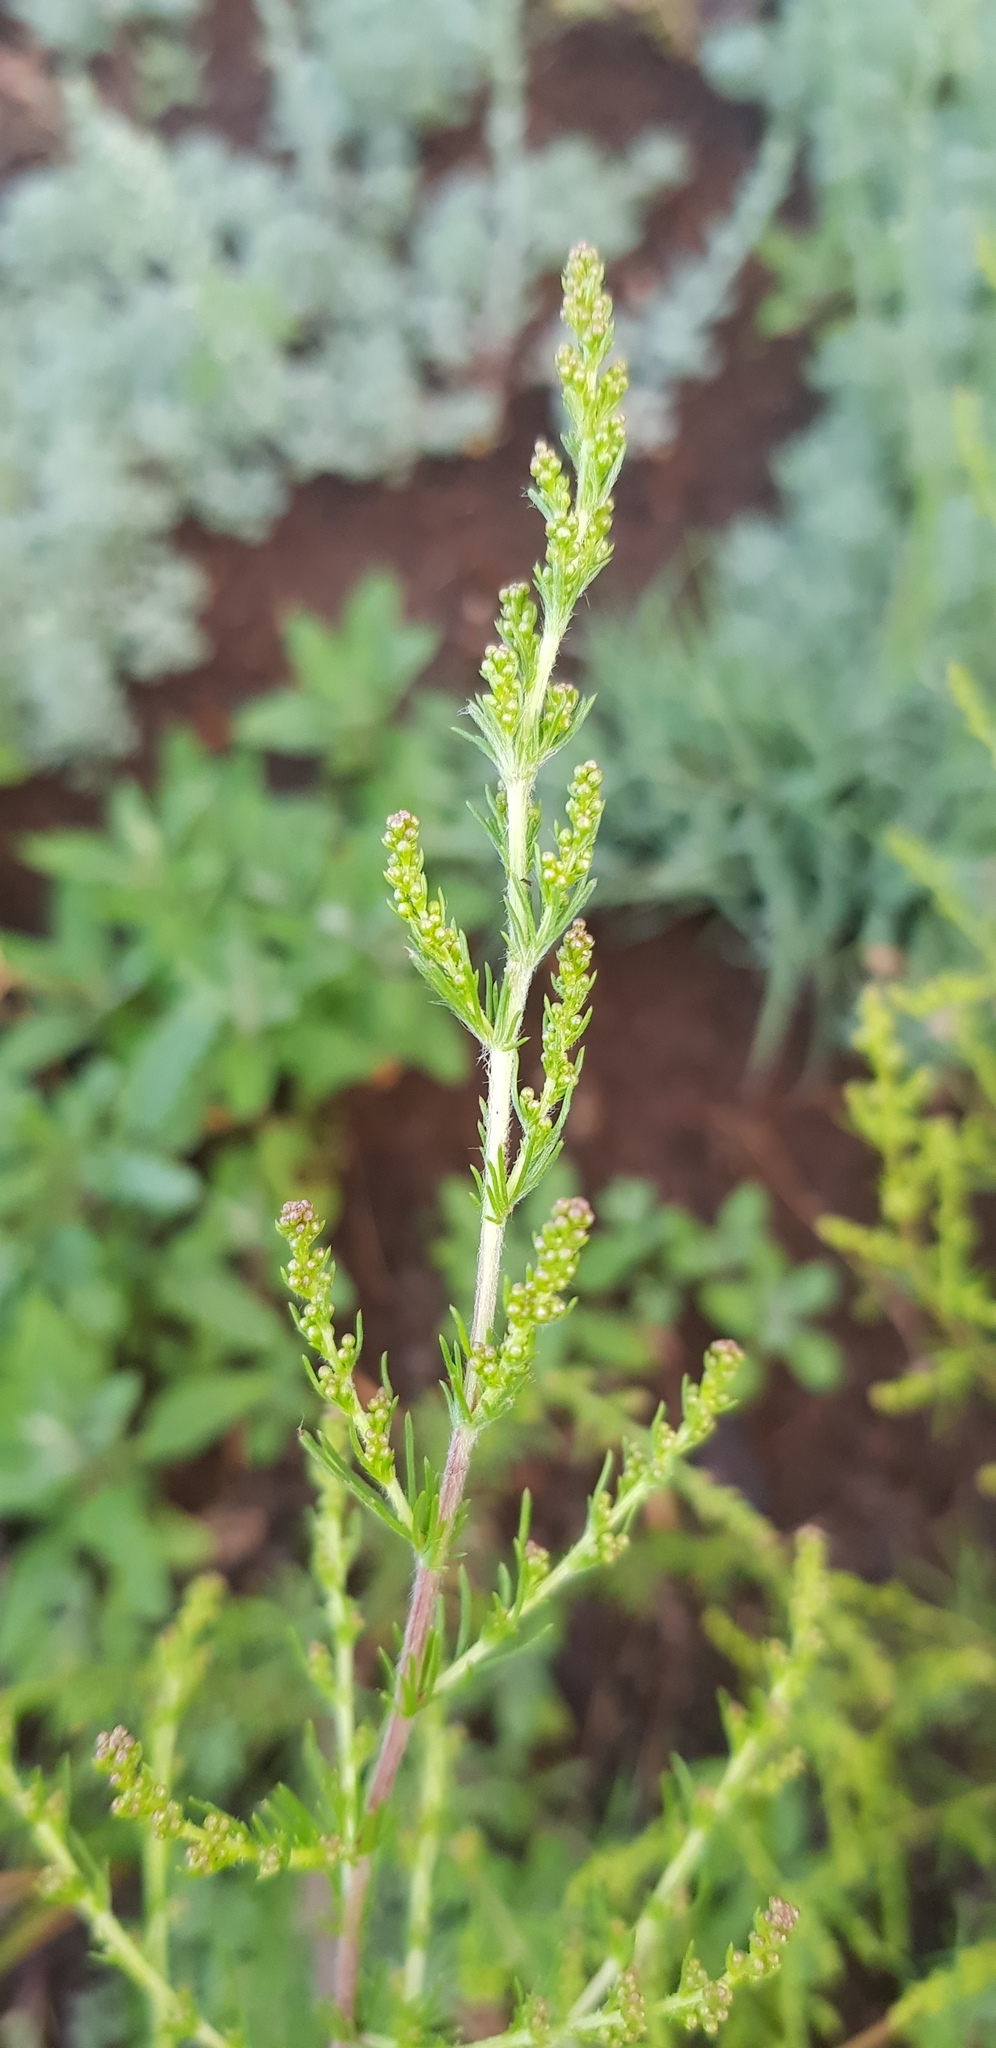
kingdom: Plantae
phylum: Tracheophyta
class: Magnoliopsida
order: Asterales
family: Asteraceae
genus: Artemisia
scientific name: Artemisia scoparia
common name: Redstem wormwood
